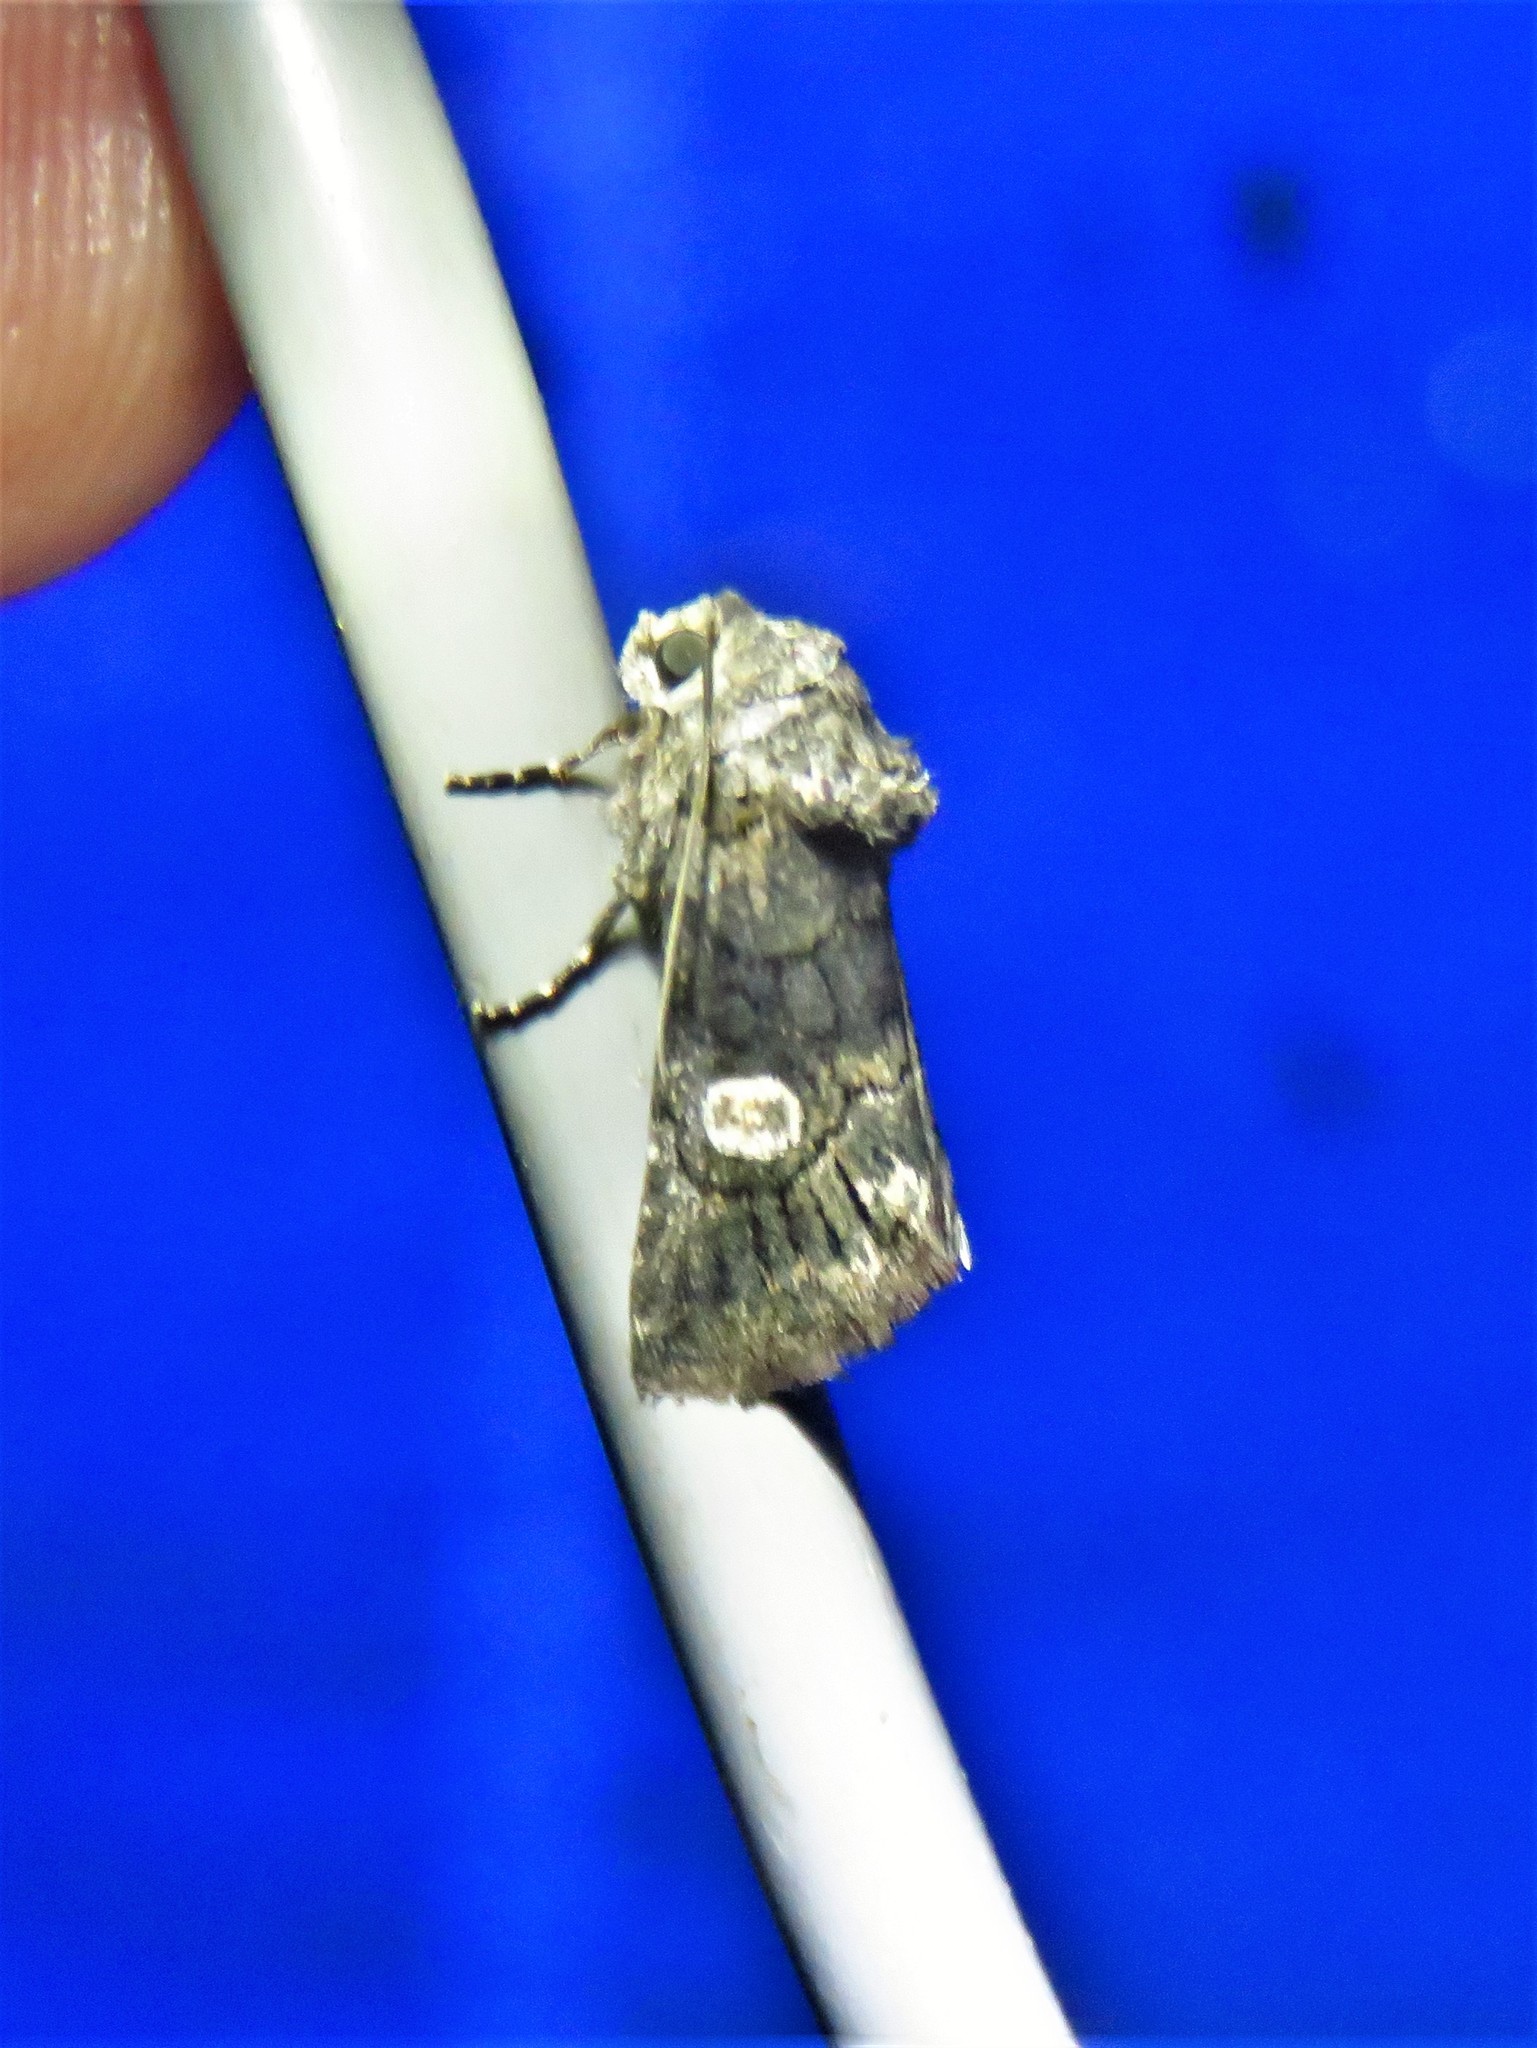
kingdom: Animalia
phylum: Arthropoda
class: Insecta
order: Lepidoptera
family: Noctuidae
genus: Copanarta
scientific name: Copanarta aurea
